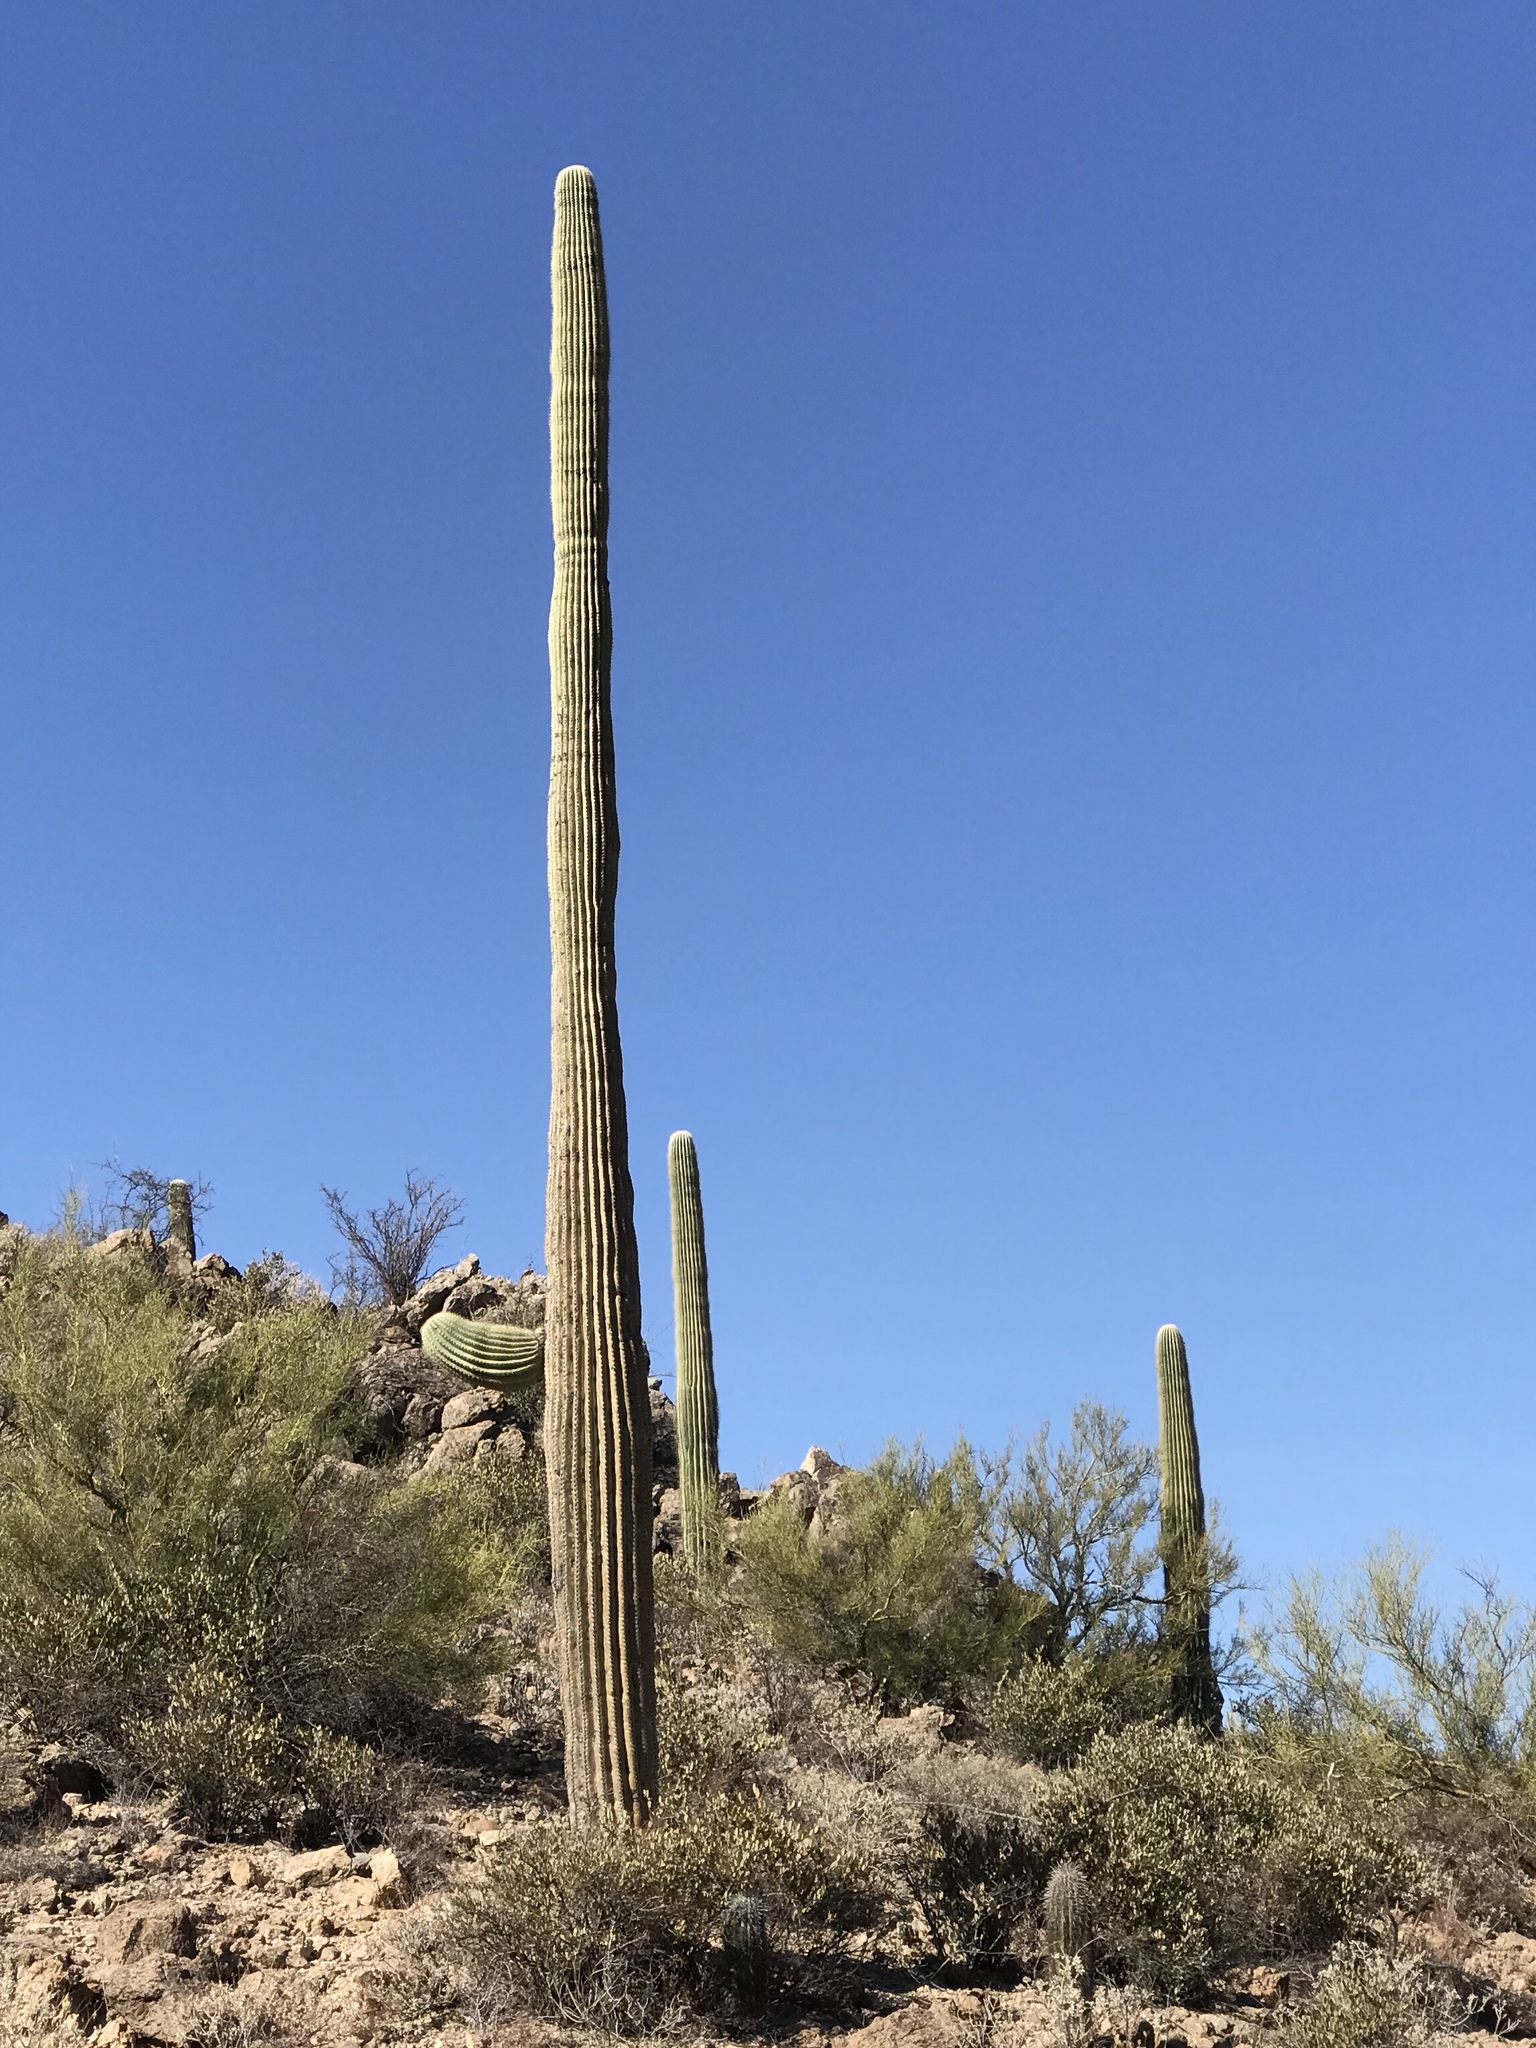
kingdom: Plantae
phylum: Tracheophyta
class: Magnoliopsida
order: Caryophyllales
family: Cactaceae
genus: Carnegiea
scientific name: Carnegiea gigantea
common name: Saguaro
